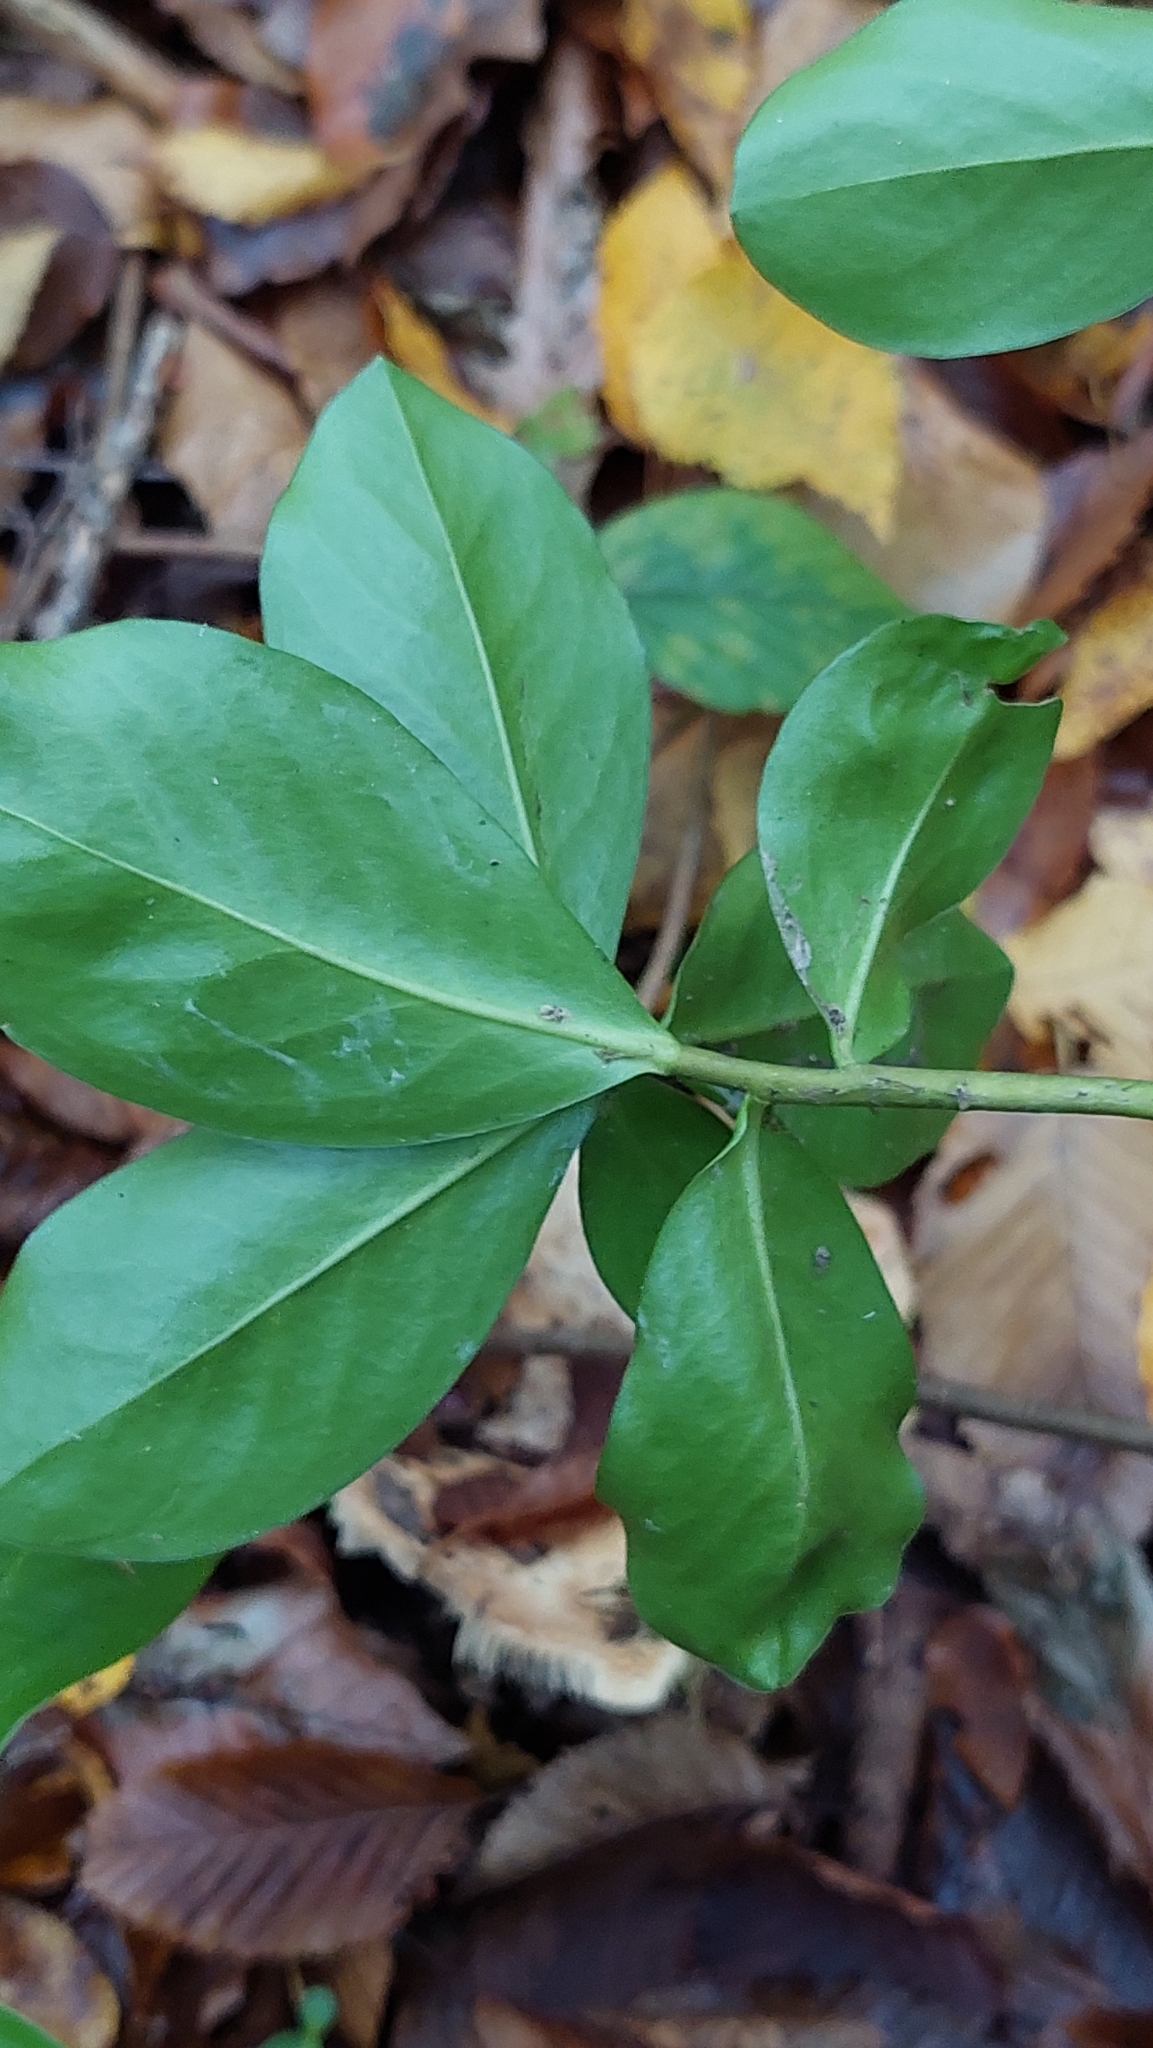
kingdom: Plantae
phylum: Tracheophyta
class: Magnoliopsida
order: Malvales
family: Thymelaeaceae
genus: Daphne
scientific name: Daphne pontica
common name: Twin-flower daphne
